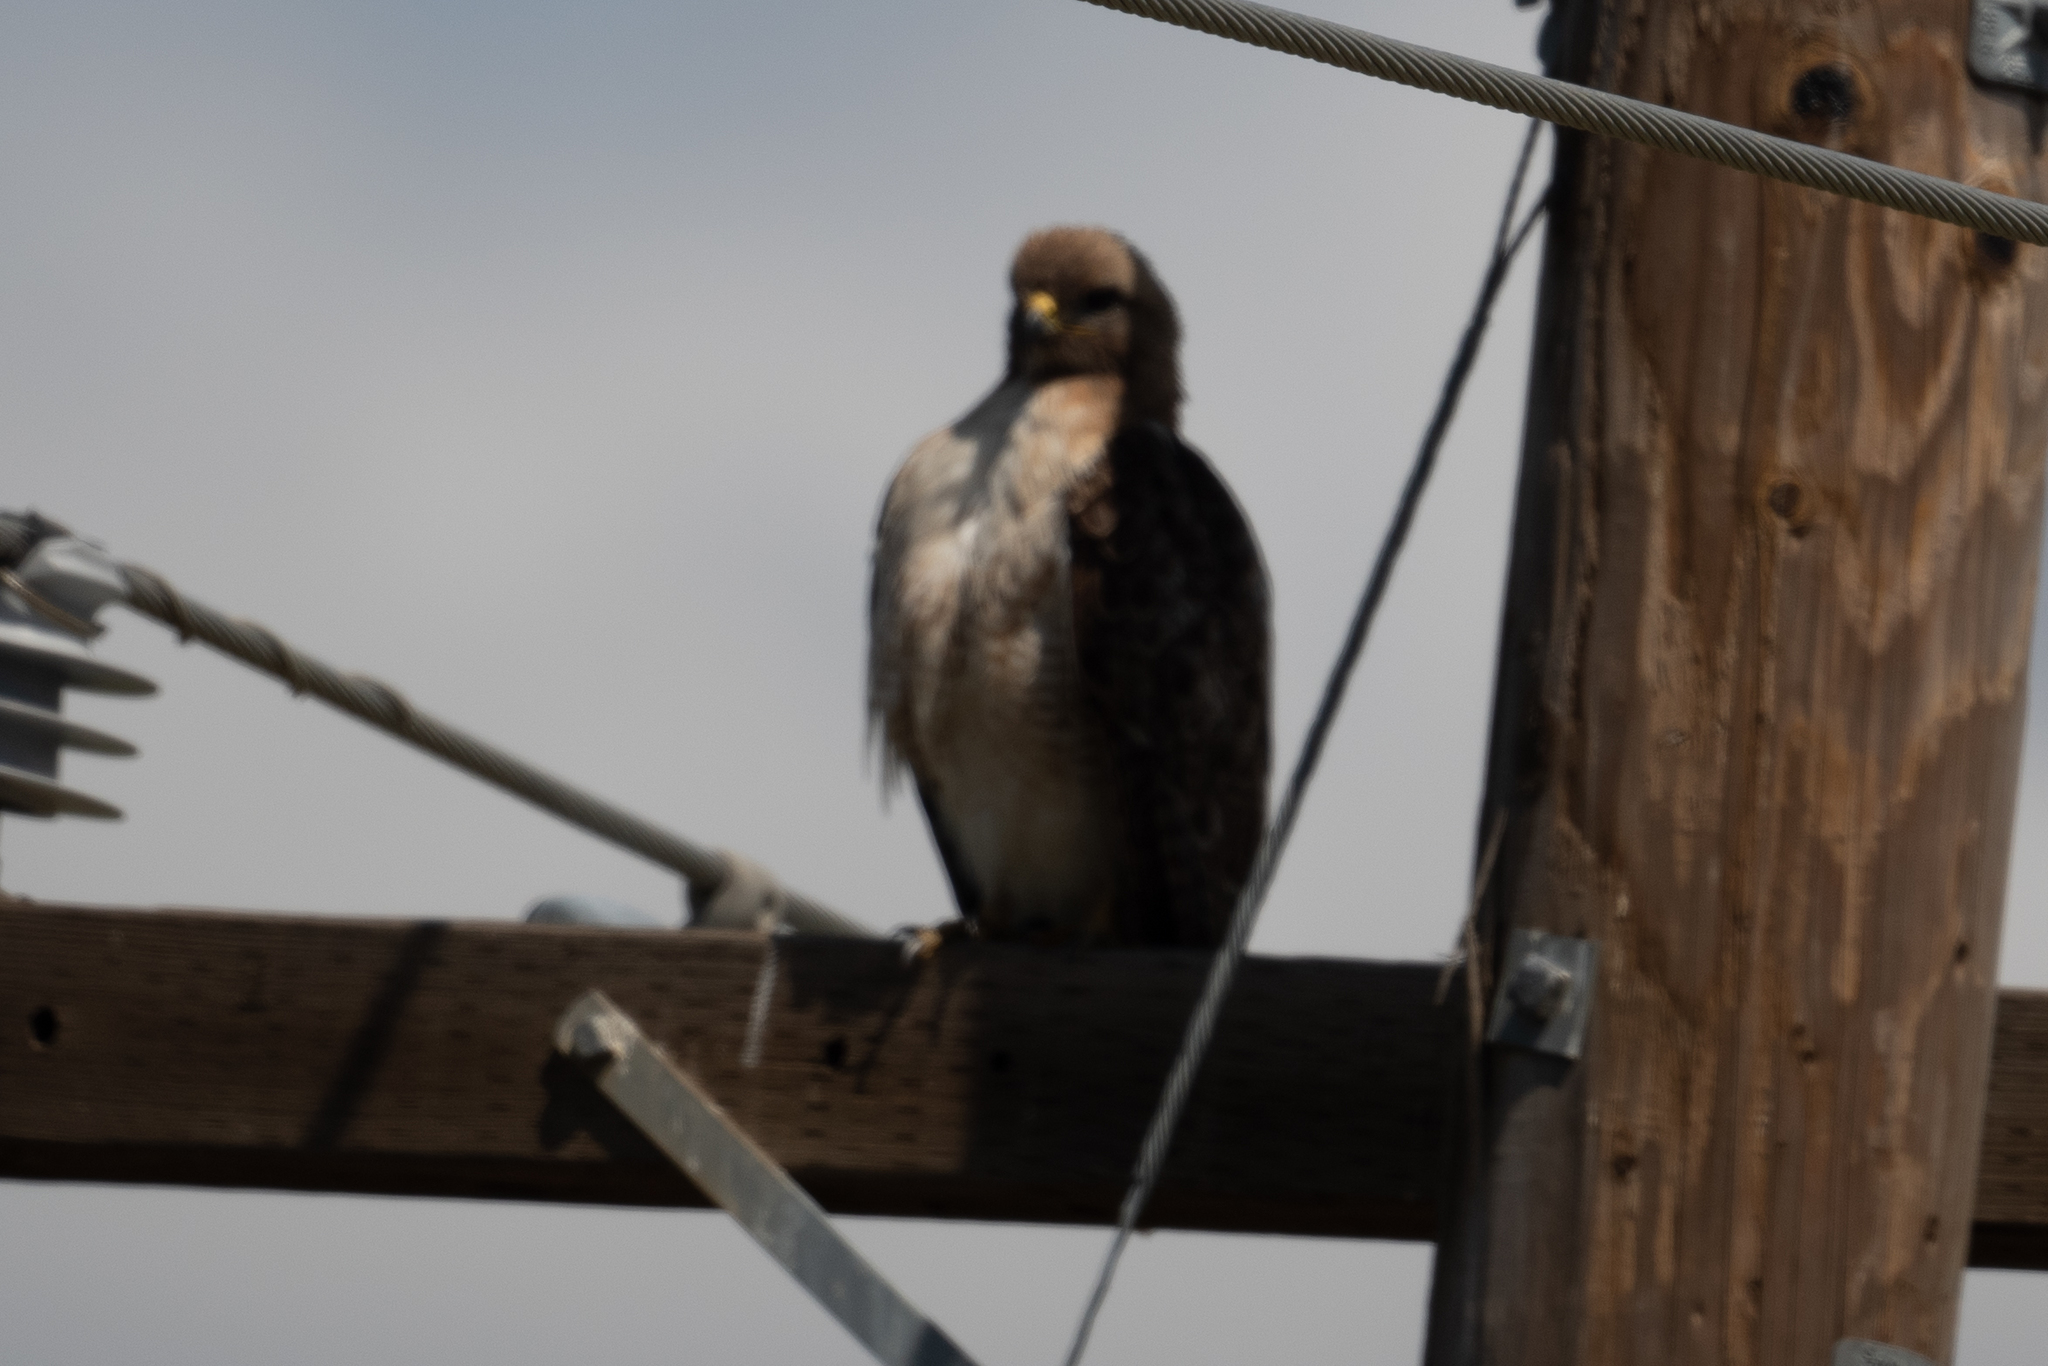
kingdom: Animalia
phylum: Chordata
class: Aves
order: Accipitriformes
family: Accipitridae
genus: Buteo
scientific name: Buteo jamaicensis
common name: Red-tailed hawk
